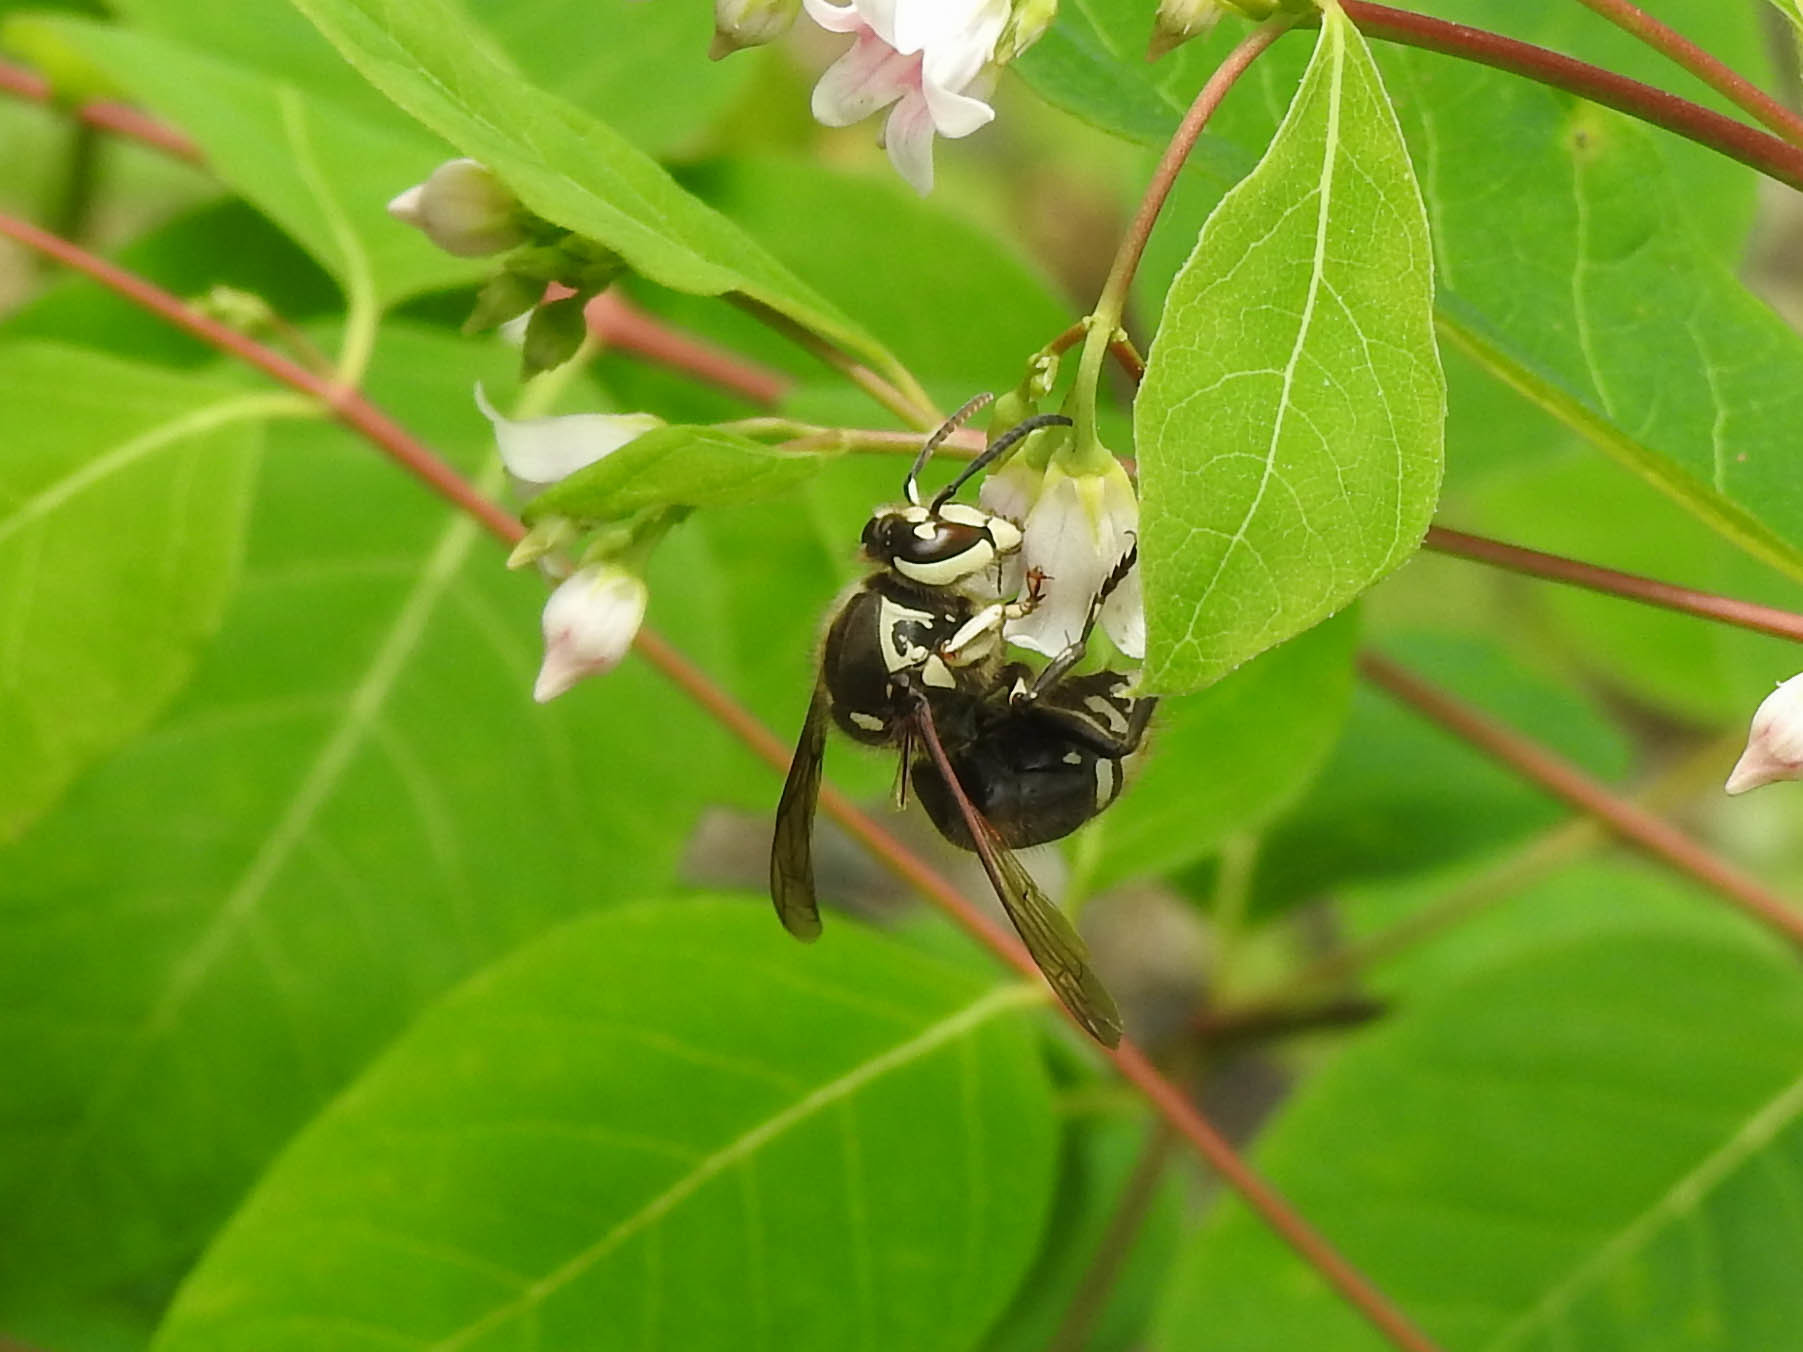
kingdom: Animalia
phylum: Arthropoda
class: Insecta
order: Hymenoptera
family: Vespidae
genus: Dolichovespula
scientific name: Dolichovespula maculata
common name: Bald-faced hornet
